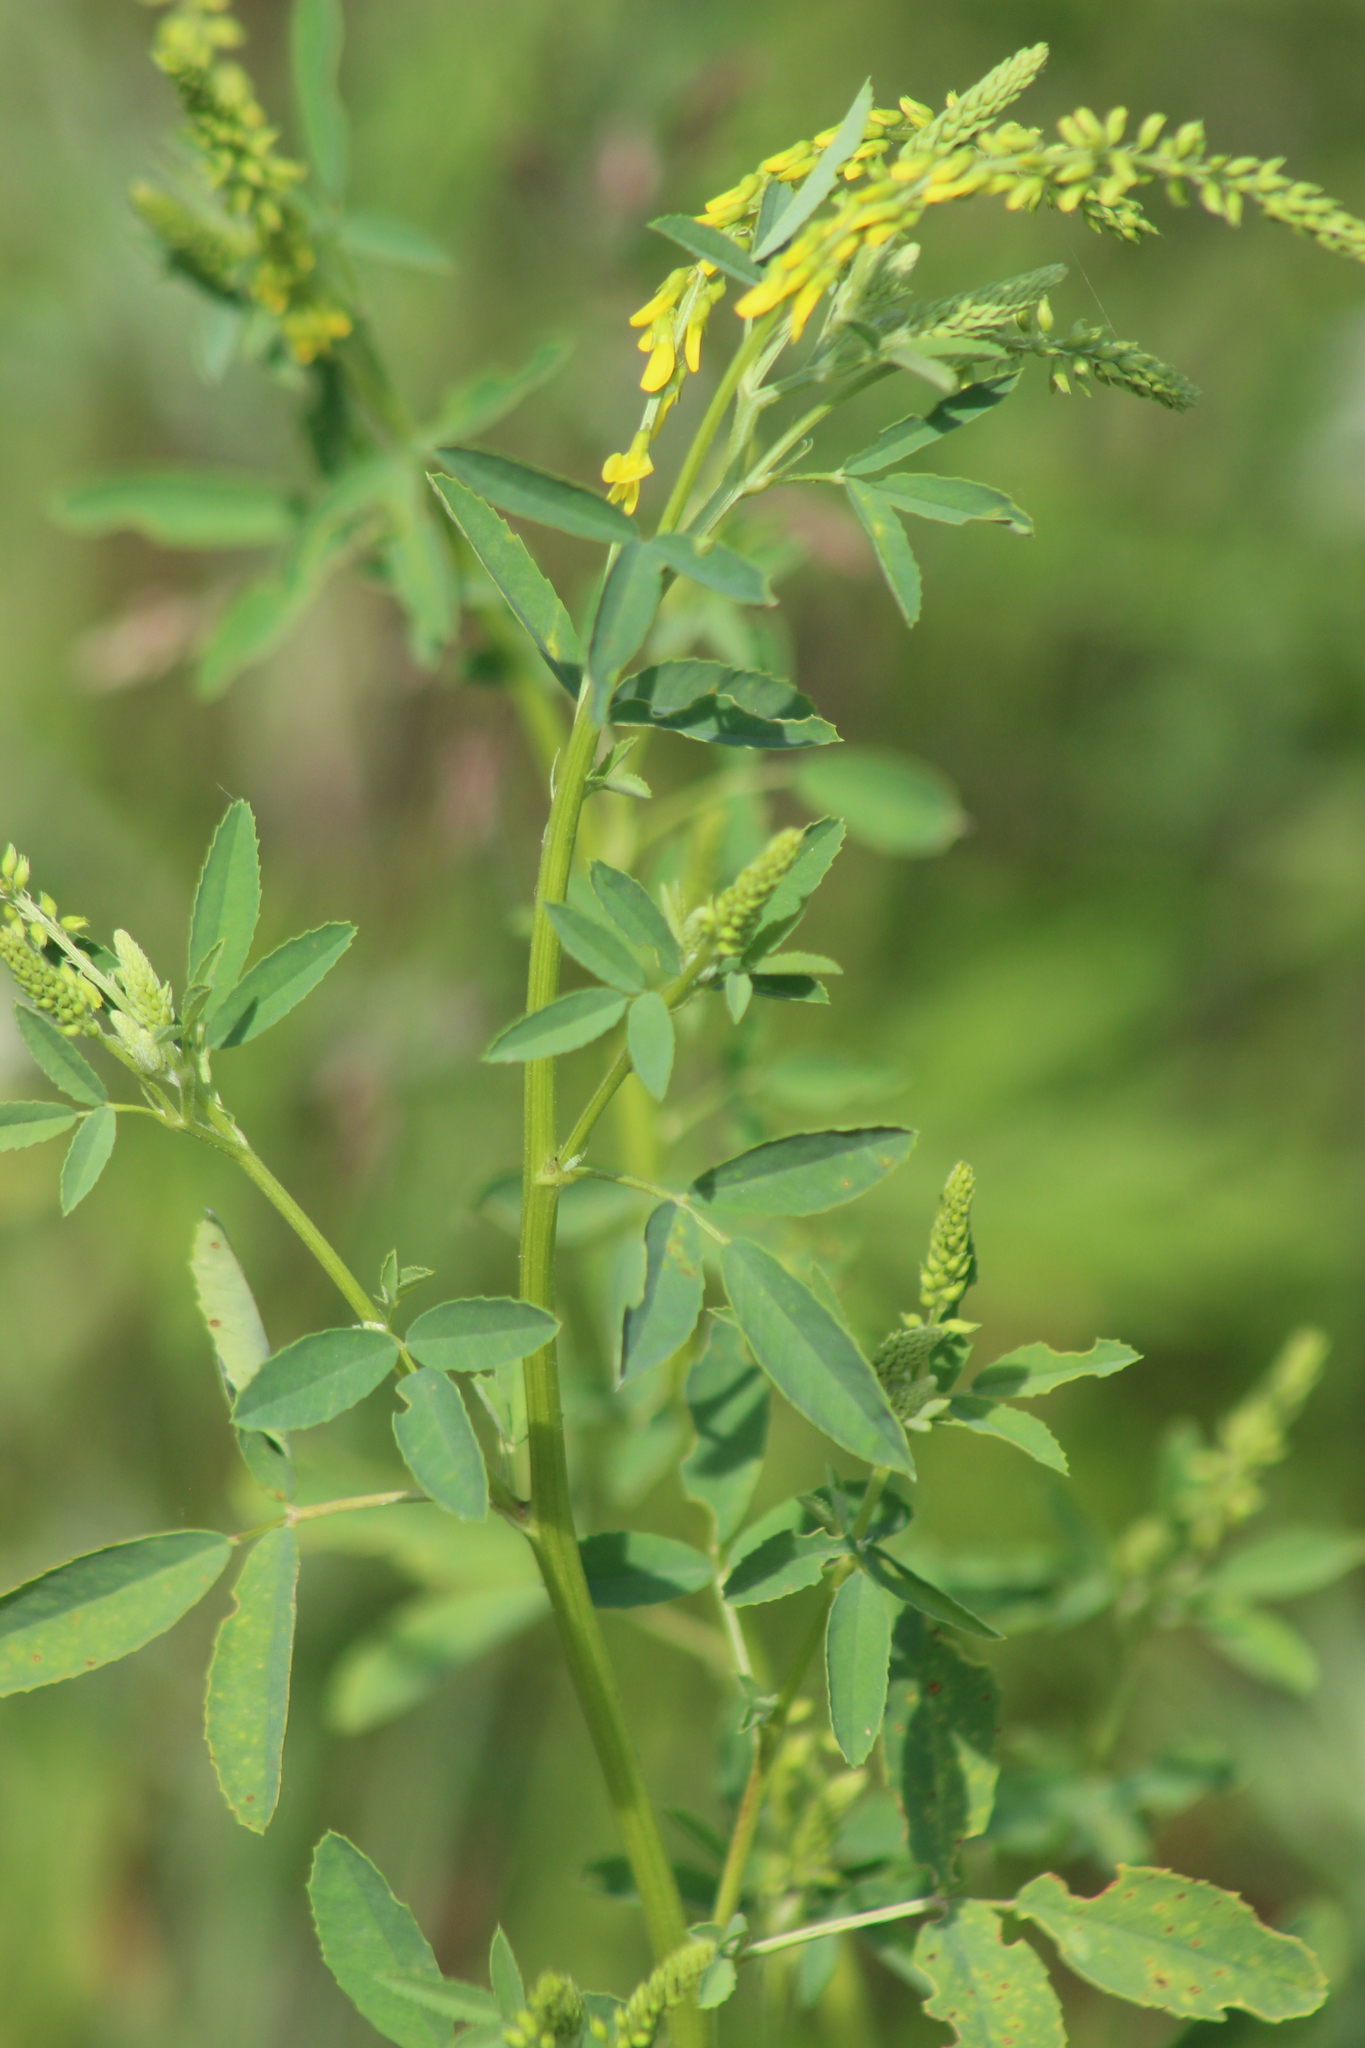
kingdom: Plantae
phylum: Tracheophyta
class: Magnoliopsida
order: Fabales
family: Fabaceae
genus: Melilotus
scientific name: Melilotus officinalis
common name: Sweetclover
